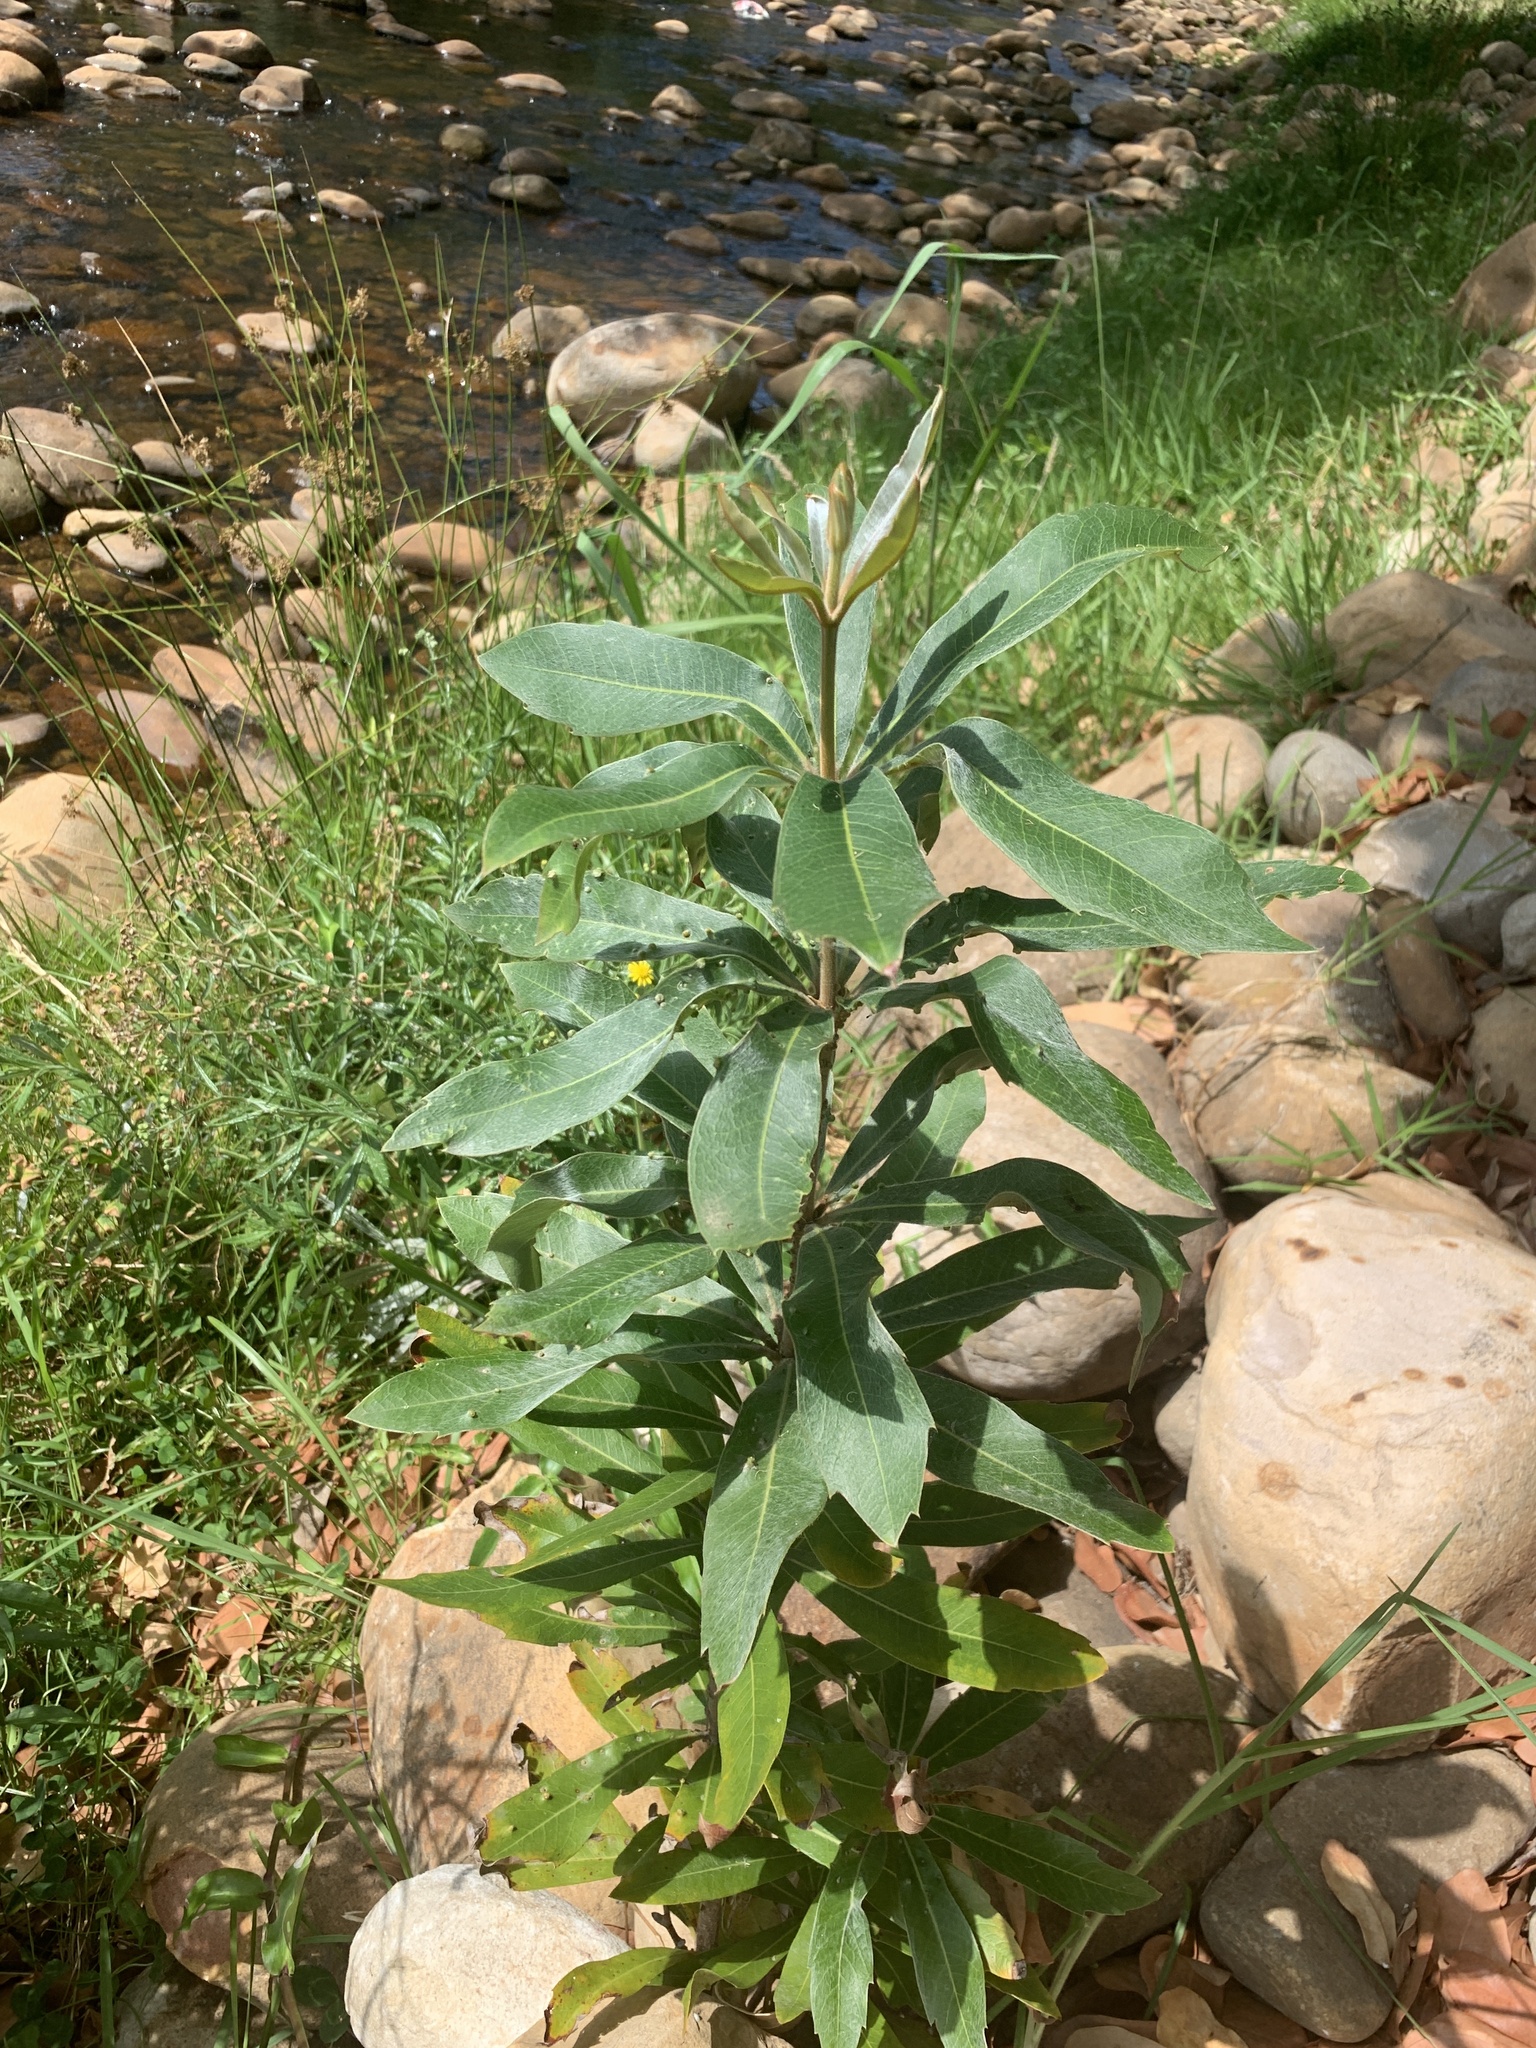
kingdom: Plantae
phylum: Tracheophyta
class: Magnoliopsida
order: Proteales
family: Proteaceae
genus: Brabejum
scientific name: Brabejum stellatifolium
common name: Wild almond
